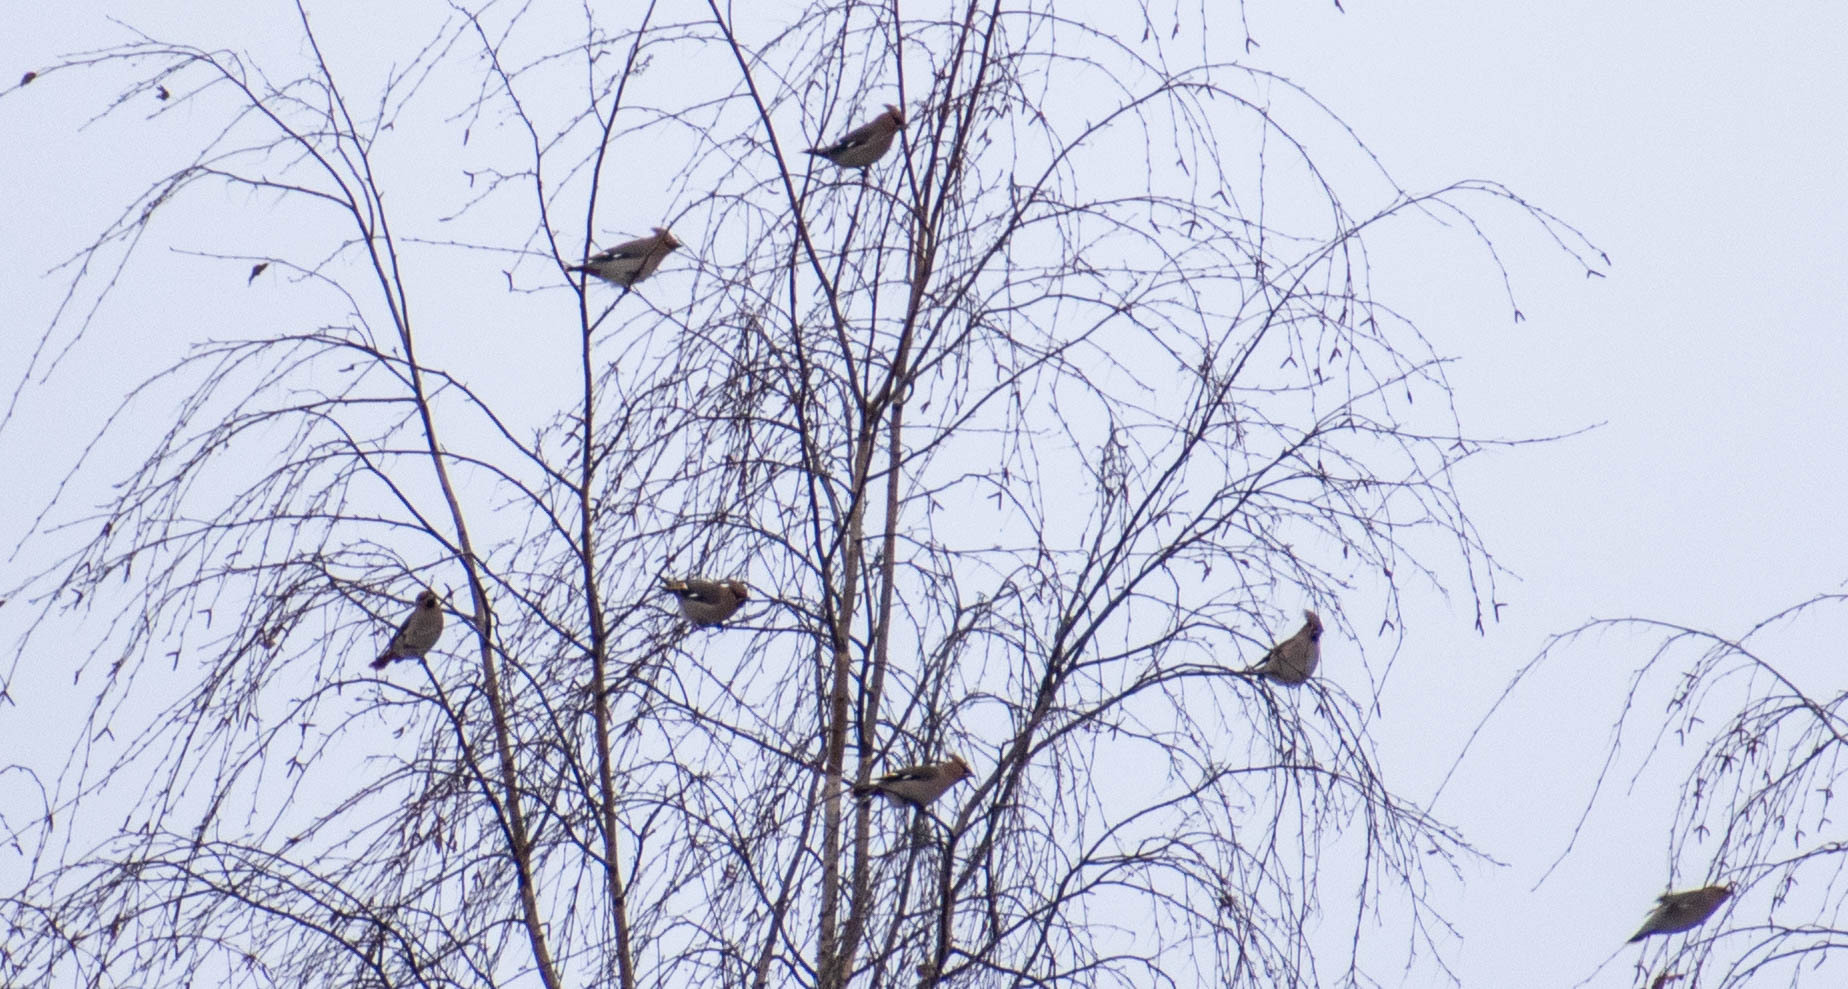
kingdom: Animalia
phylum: Chordata
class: Aves
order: Passeriformes
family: Bombycillidae
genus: Bombycilla
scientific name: Bombycilla garrulus
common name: Bohemian waxwing
